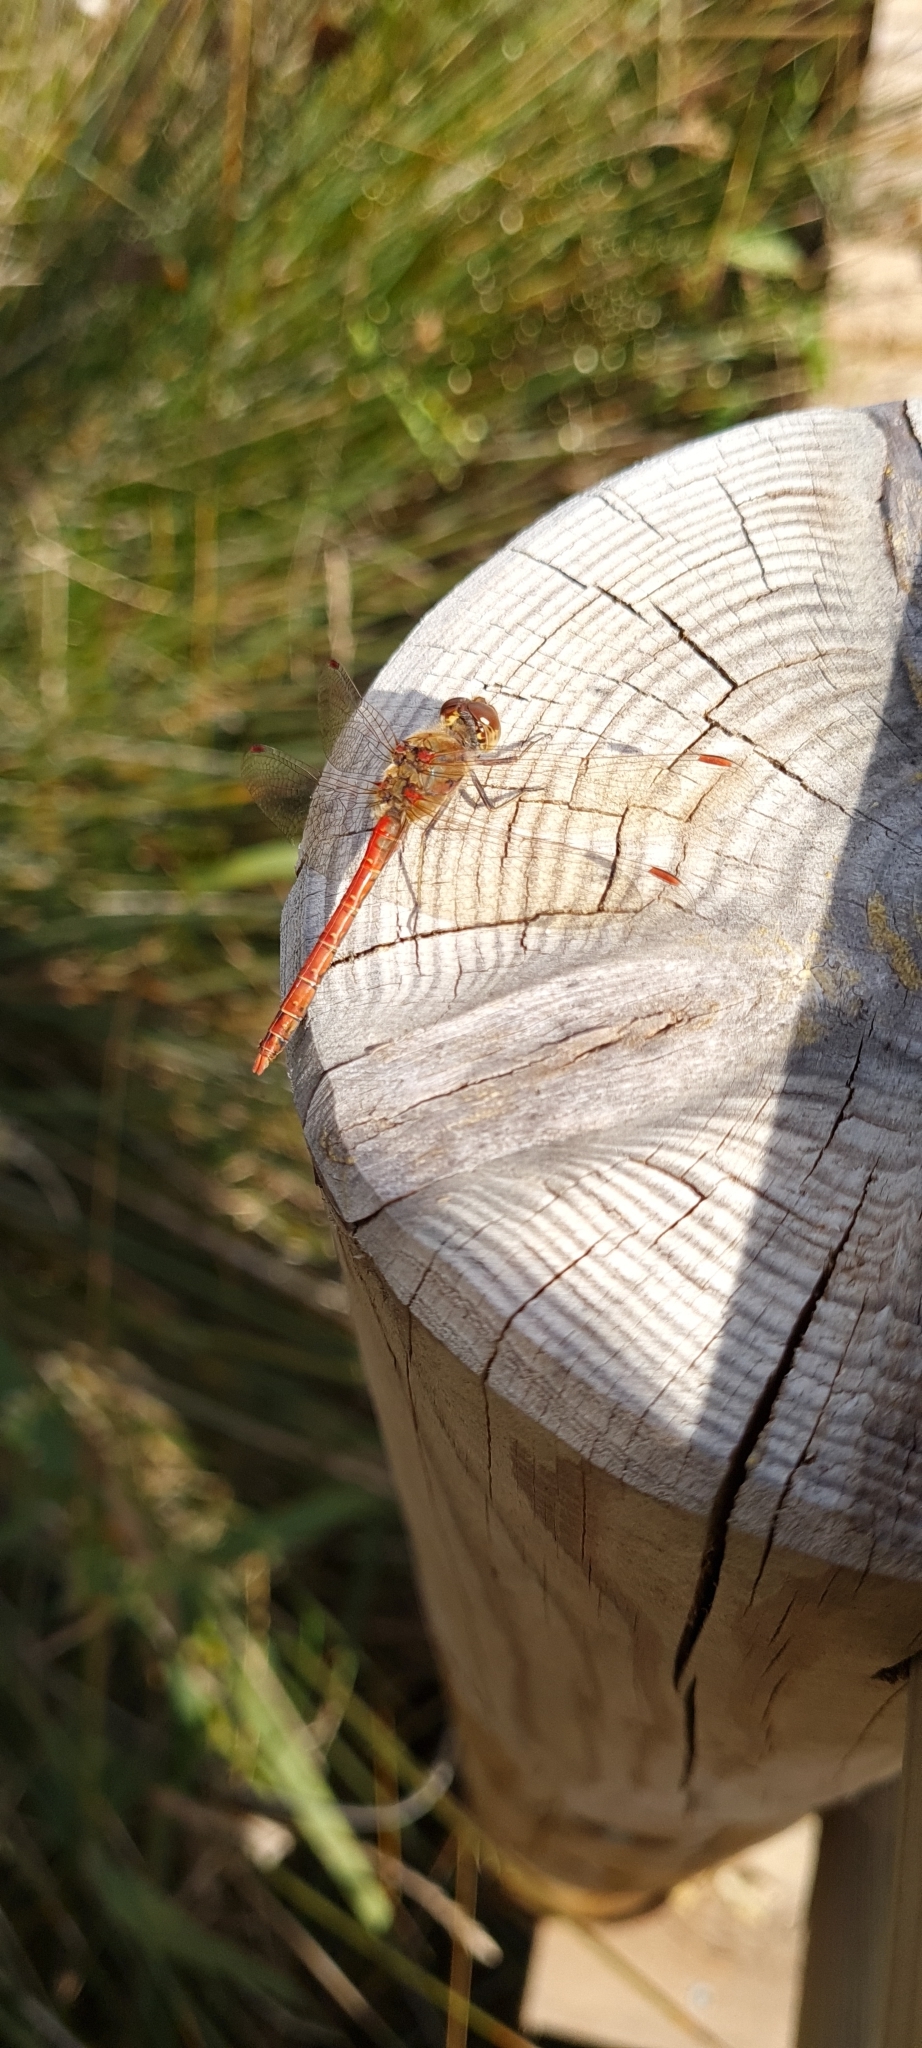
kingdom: Animalia
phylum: Arthropoda
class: Insecta
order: Odonata
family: Libellulidae
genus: Sympetrum
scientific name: Sympetrum striolatum
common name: Common darter
